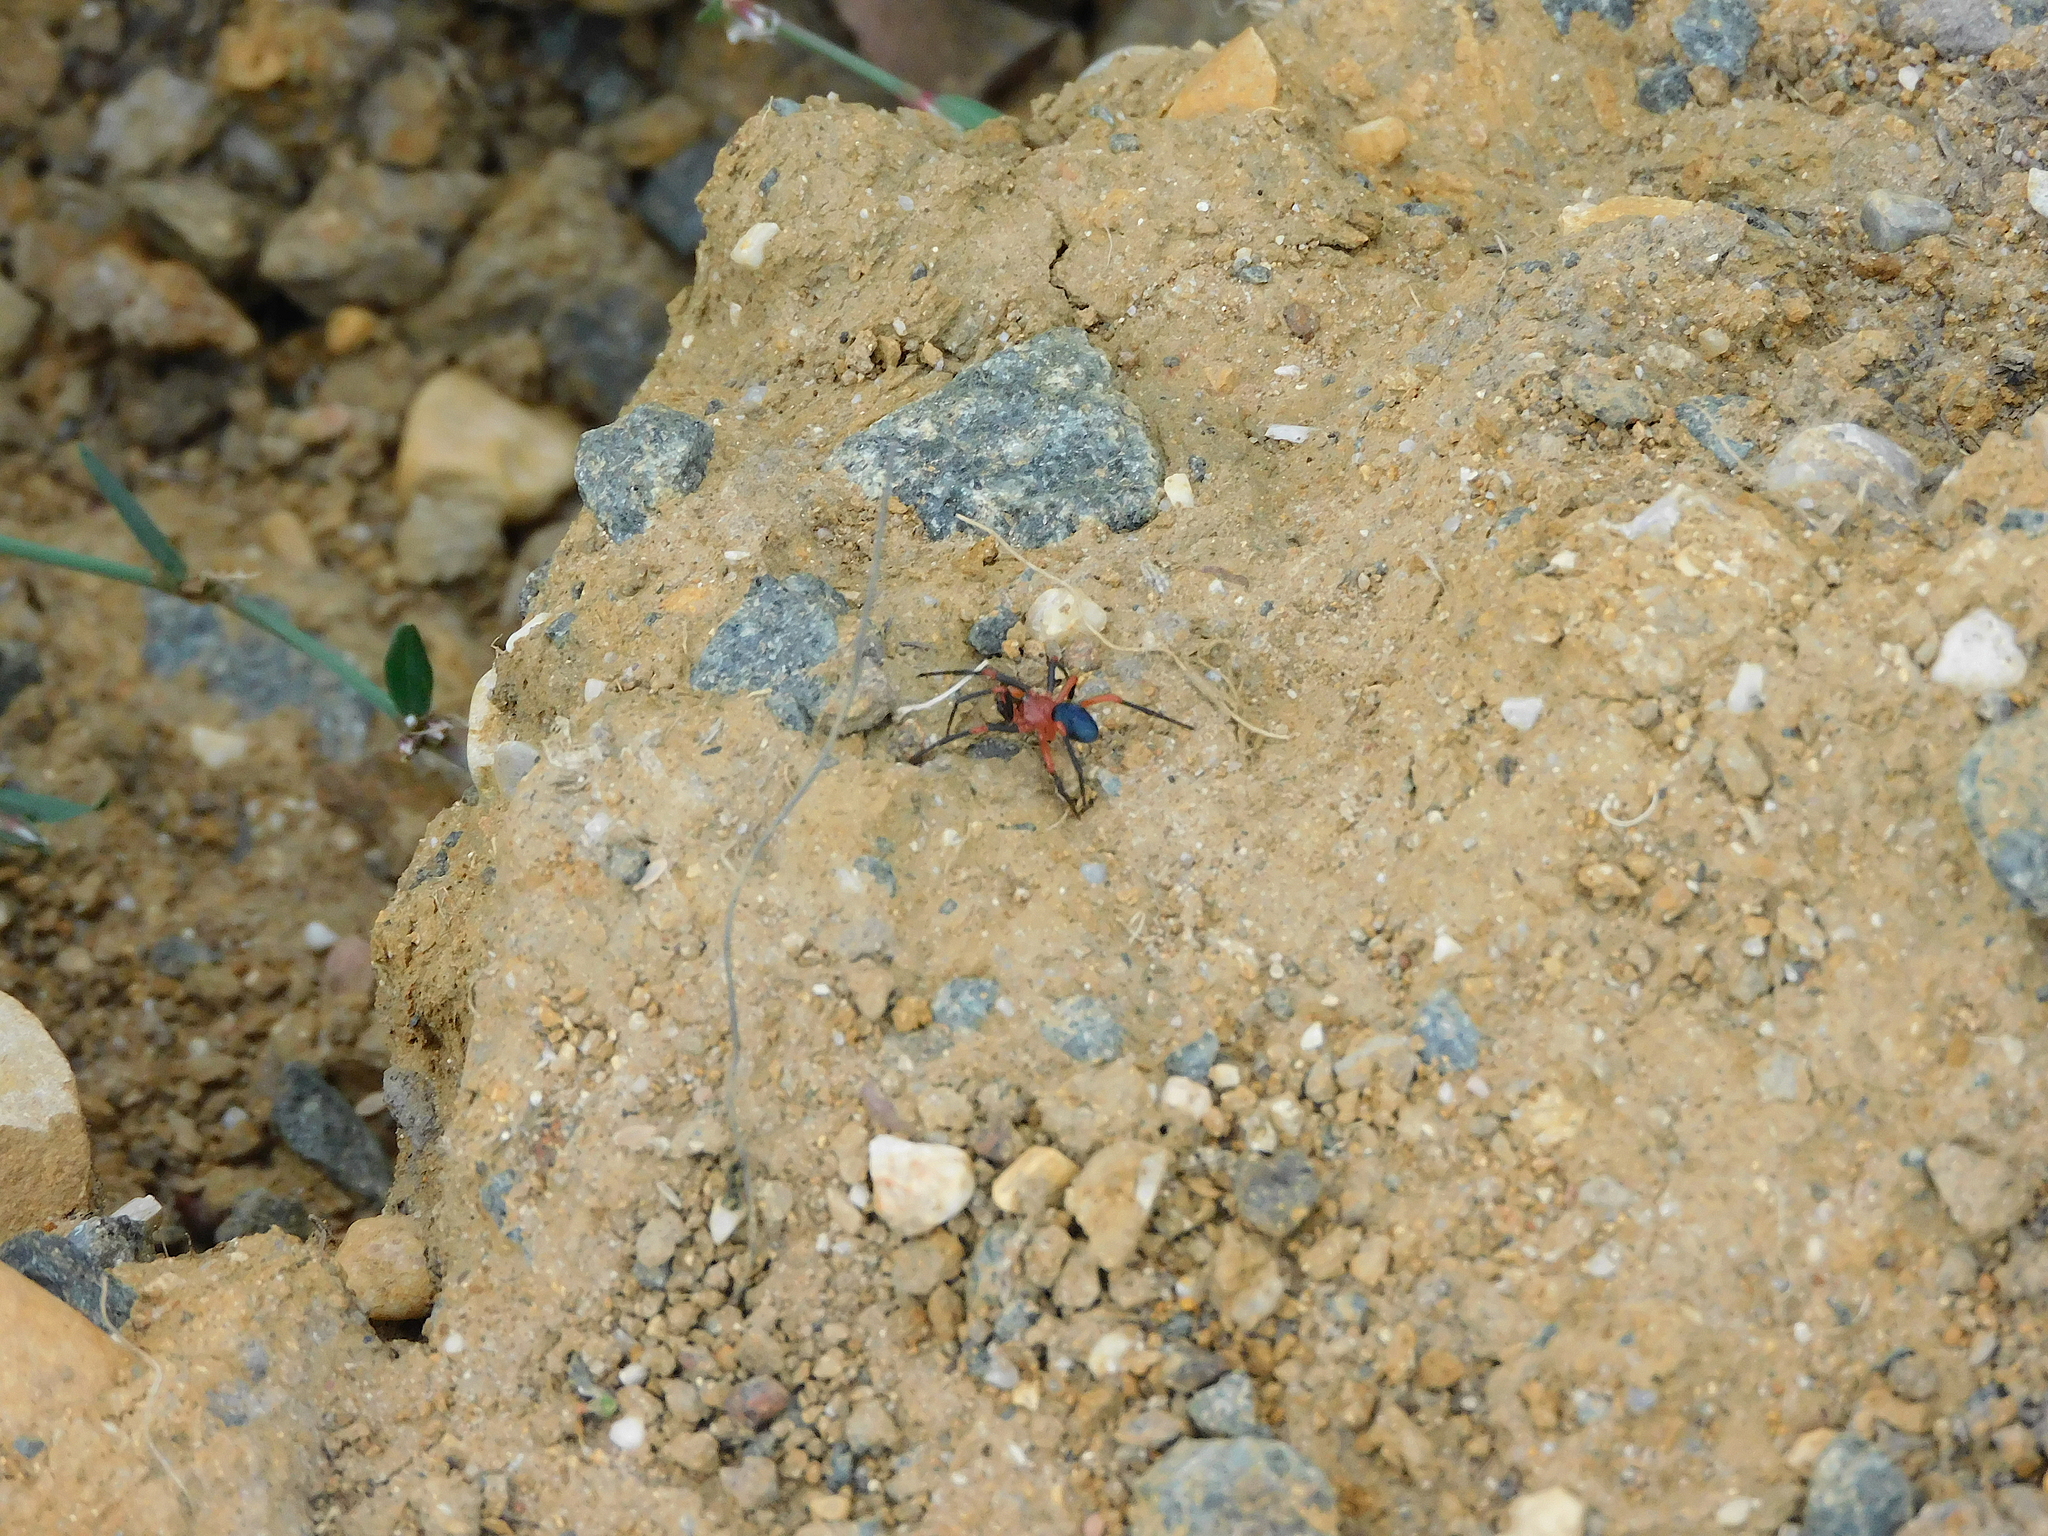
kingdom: Animalia
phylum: Arthropoda
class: Arachnida
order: Araneae
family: Nicodamidae
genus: Nicodamus
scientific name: Nicodamus peregrinus
